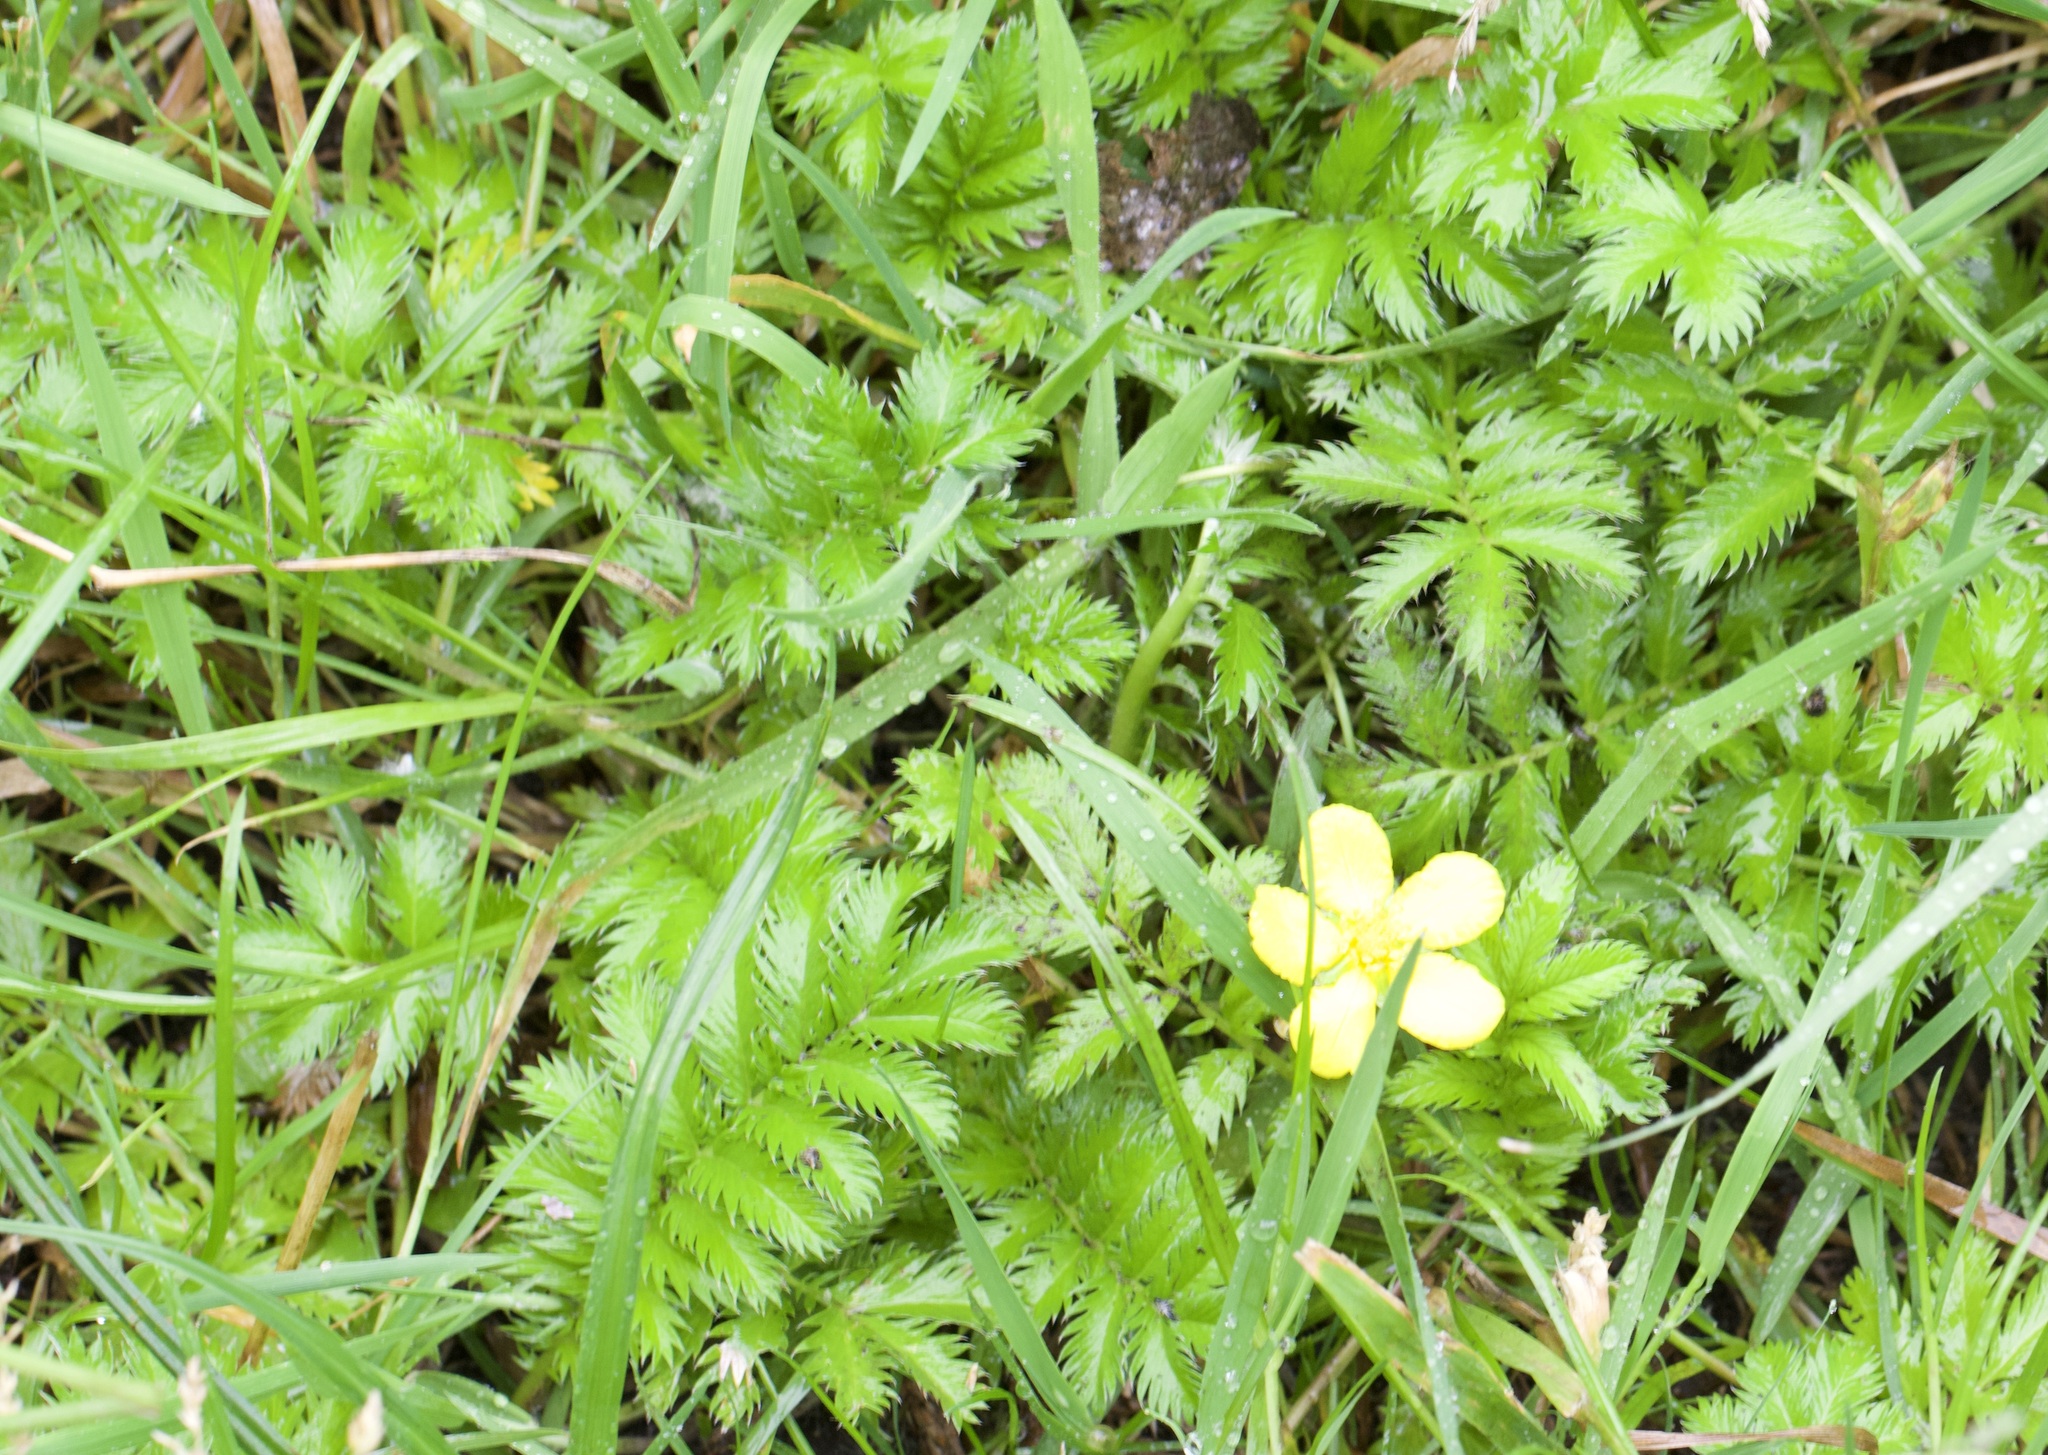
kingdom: Plantae
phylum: Tracheophyta
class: Magnoliopsida
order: Rosales
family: Rosaceae
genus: Argentina
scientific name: Argentina anserina
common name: Common silverweed
